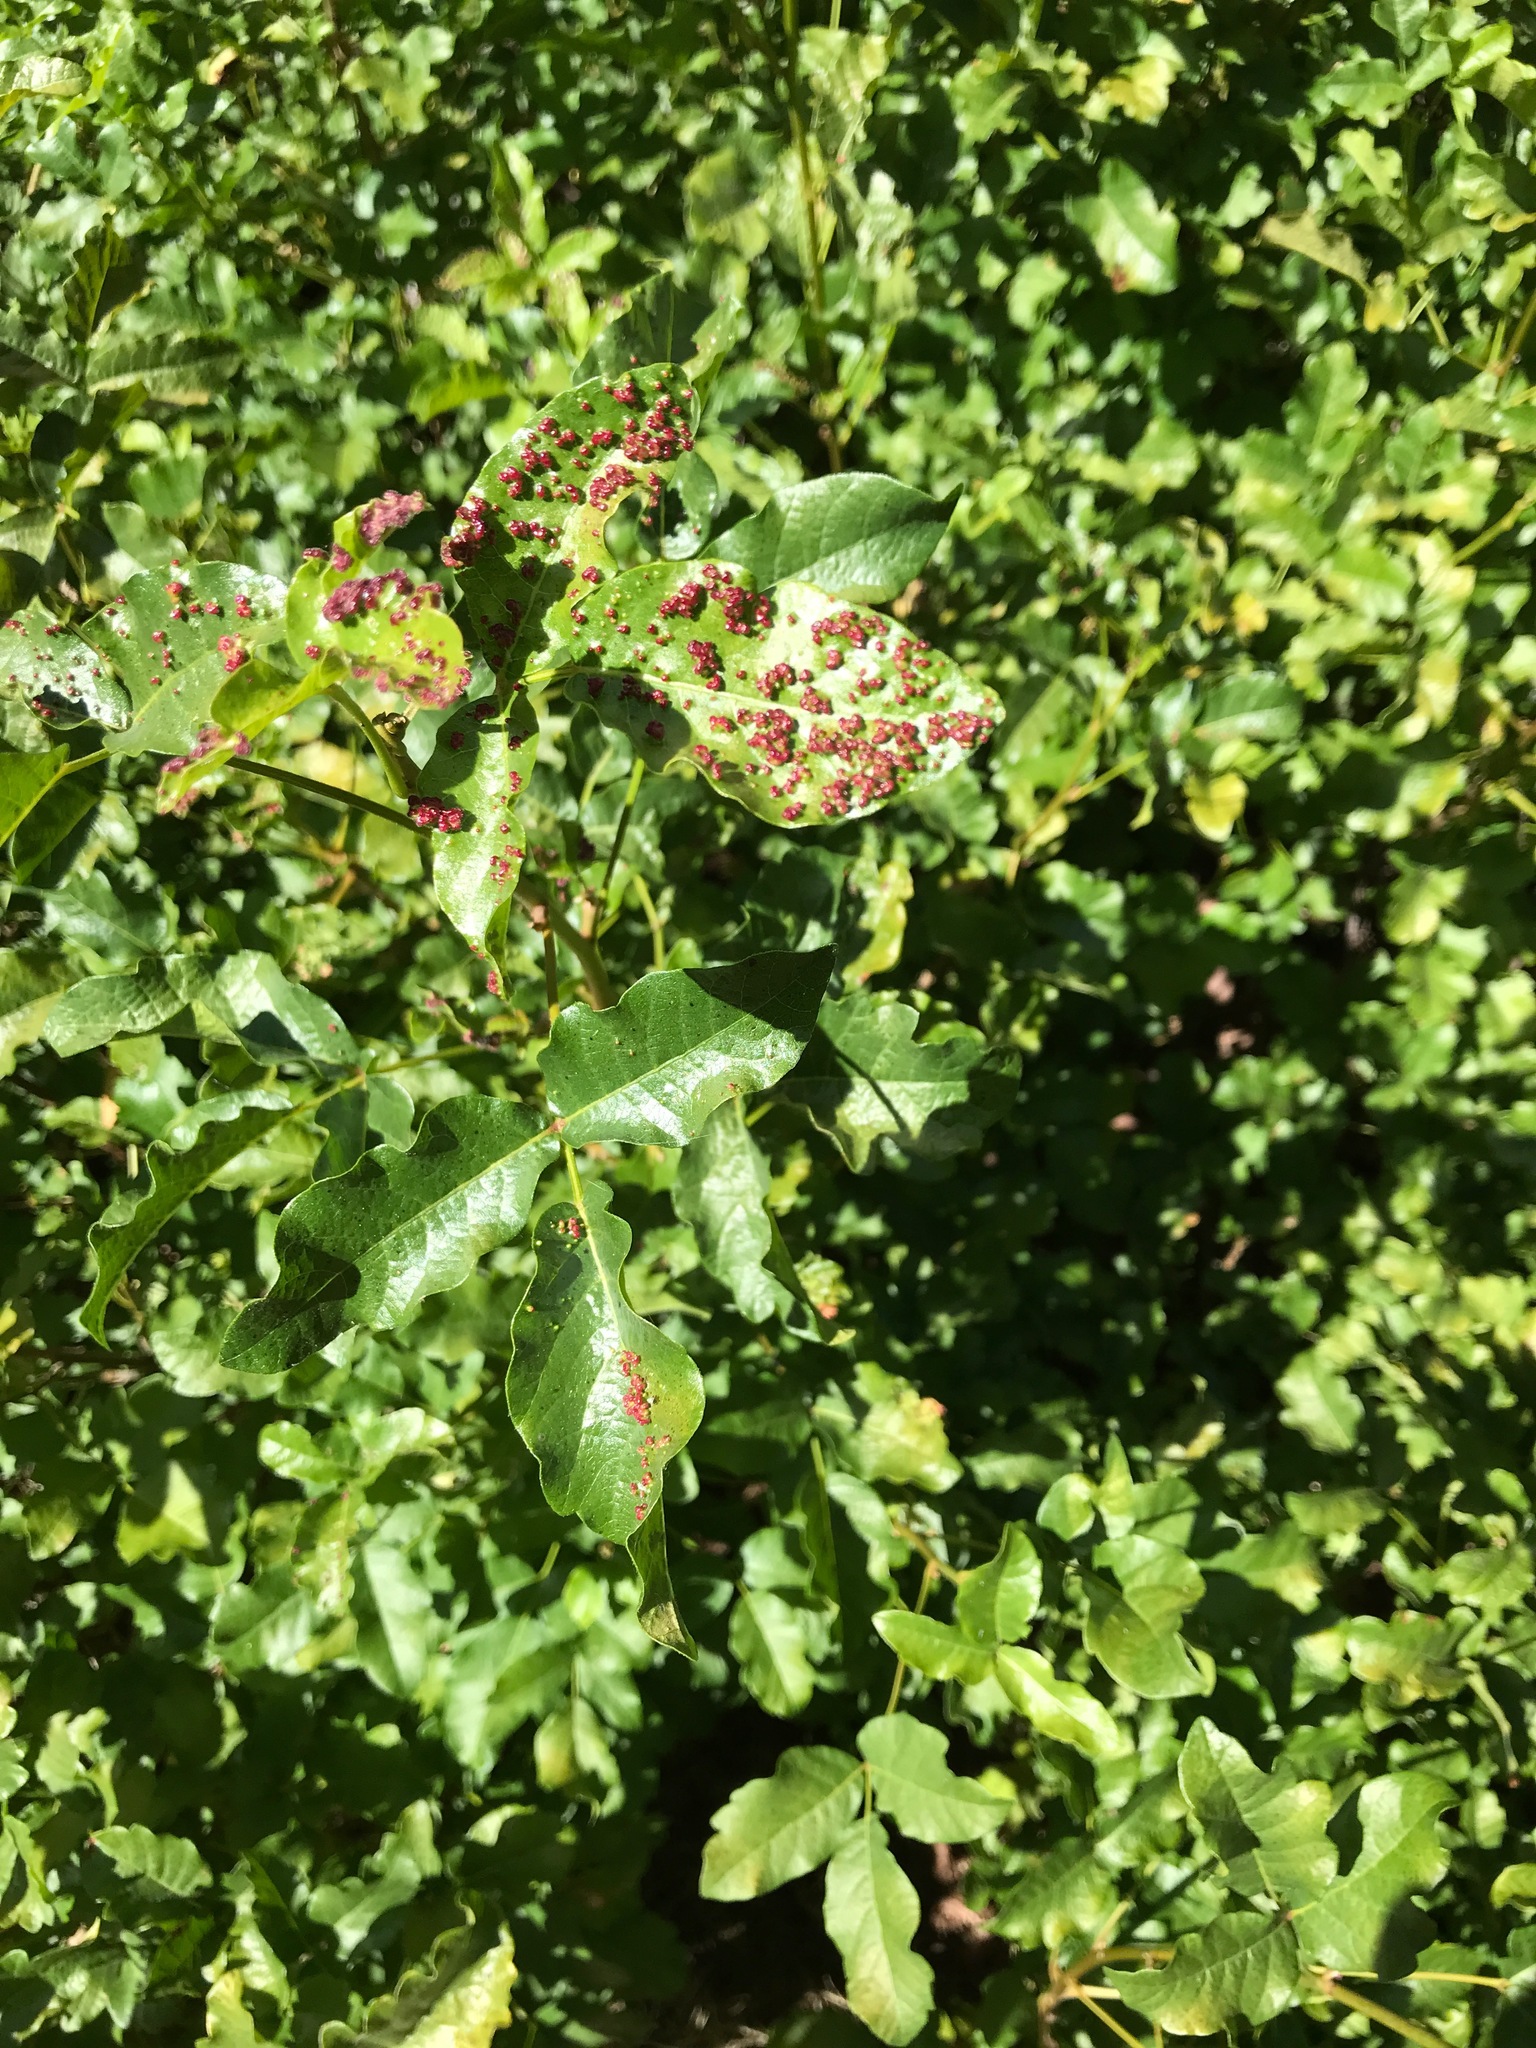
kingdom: Animalia
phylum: Arthropoda
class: Arachnida
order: Trombidiformes
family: Eriophyidae
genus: Aculops
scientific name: Aculops
